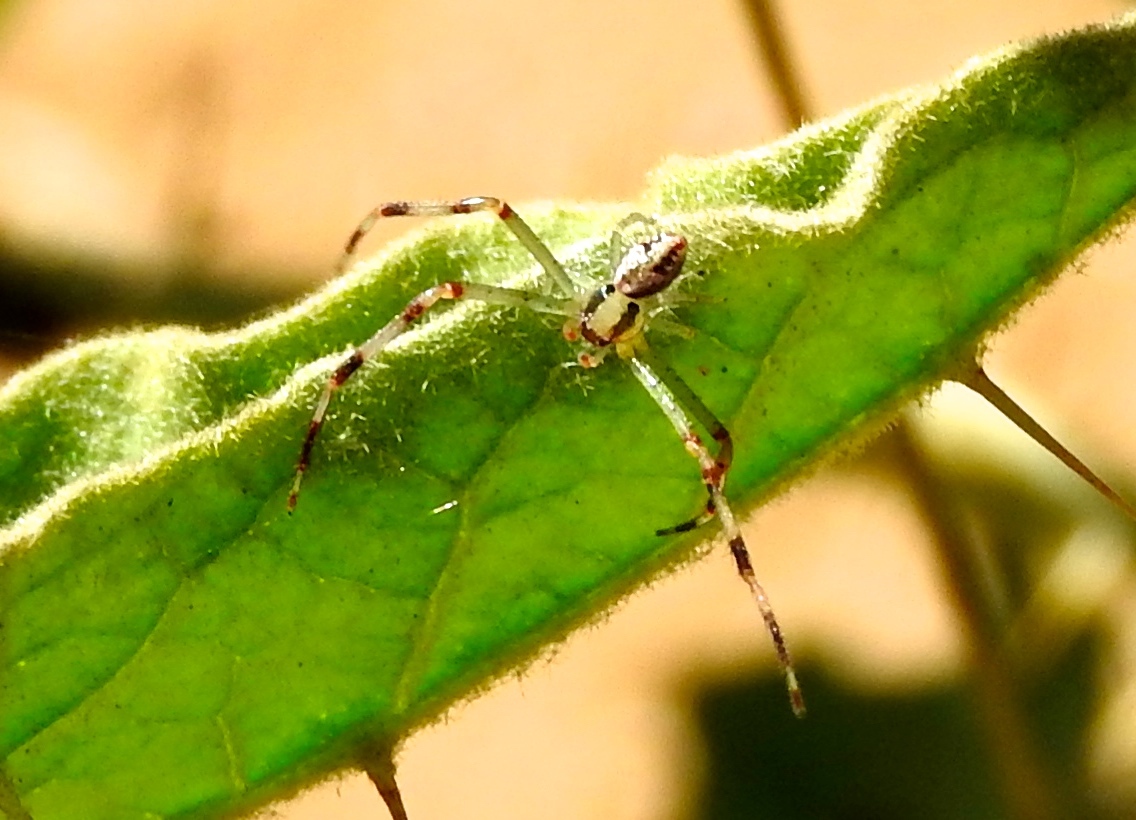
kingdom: Animalia
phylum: Arthropoda
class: Arachnida
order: Araneae
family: Thomisidae
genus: Mecaphesa
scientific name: Mecaphesa
